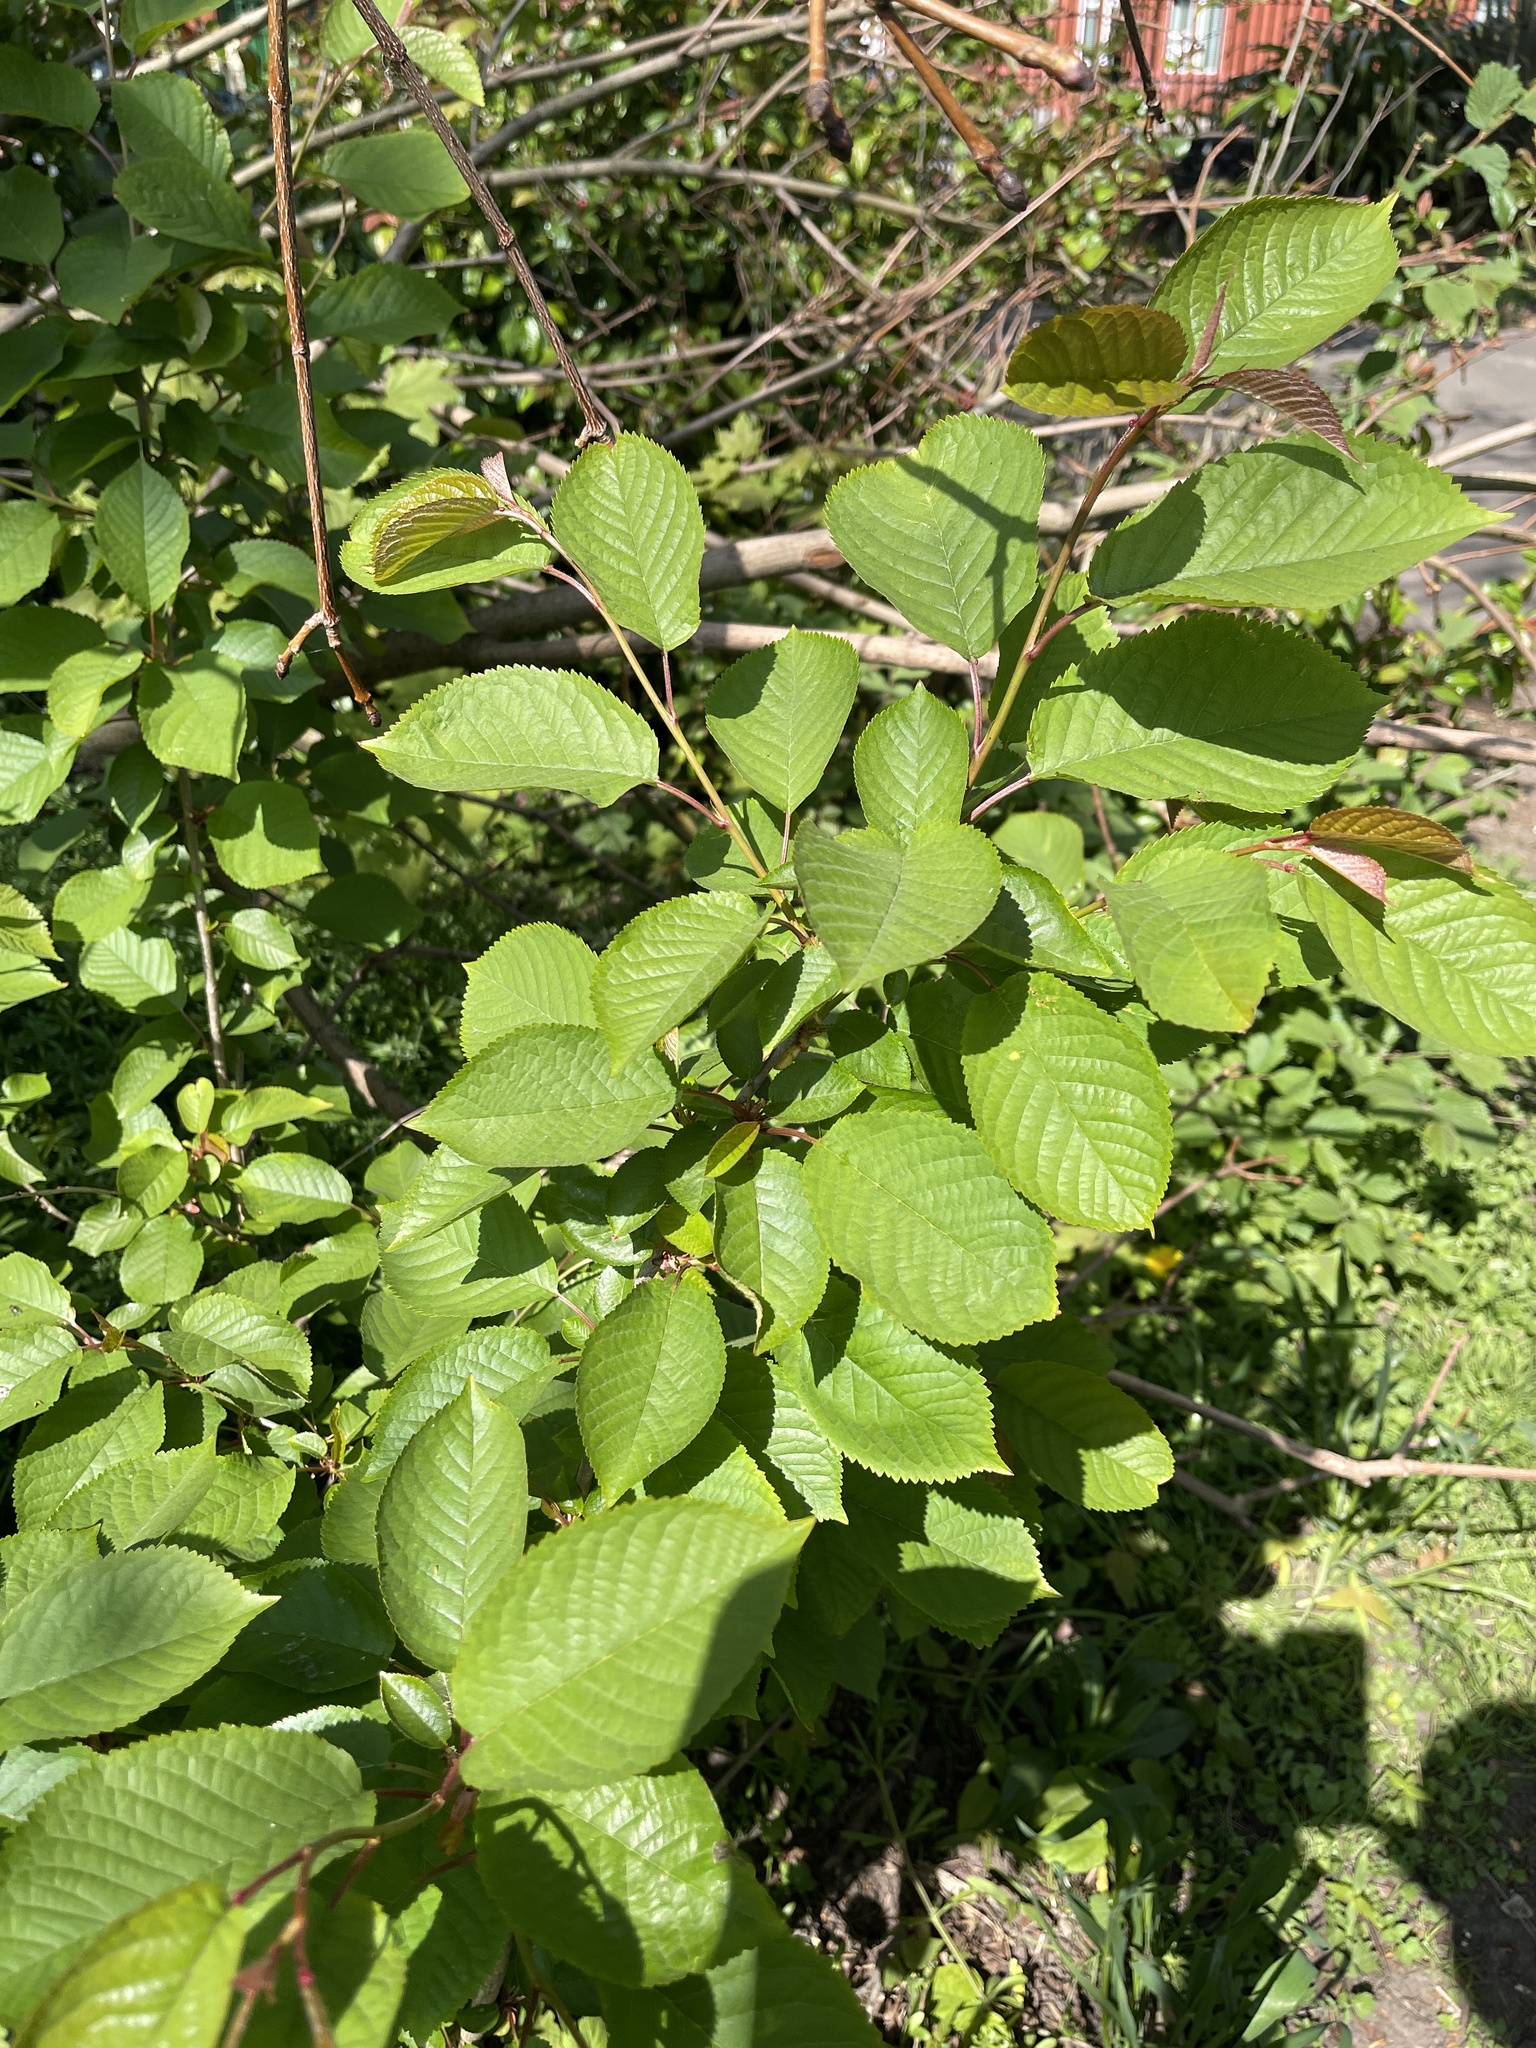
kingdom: Plantae
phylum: Tracheophyta
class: Magnoliopsida
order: Rosales
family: Rosaceae
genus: Prunus
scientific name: Prunus avium
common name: Sweet cherry
